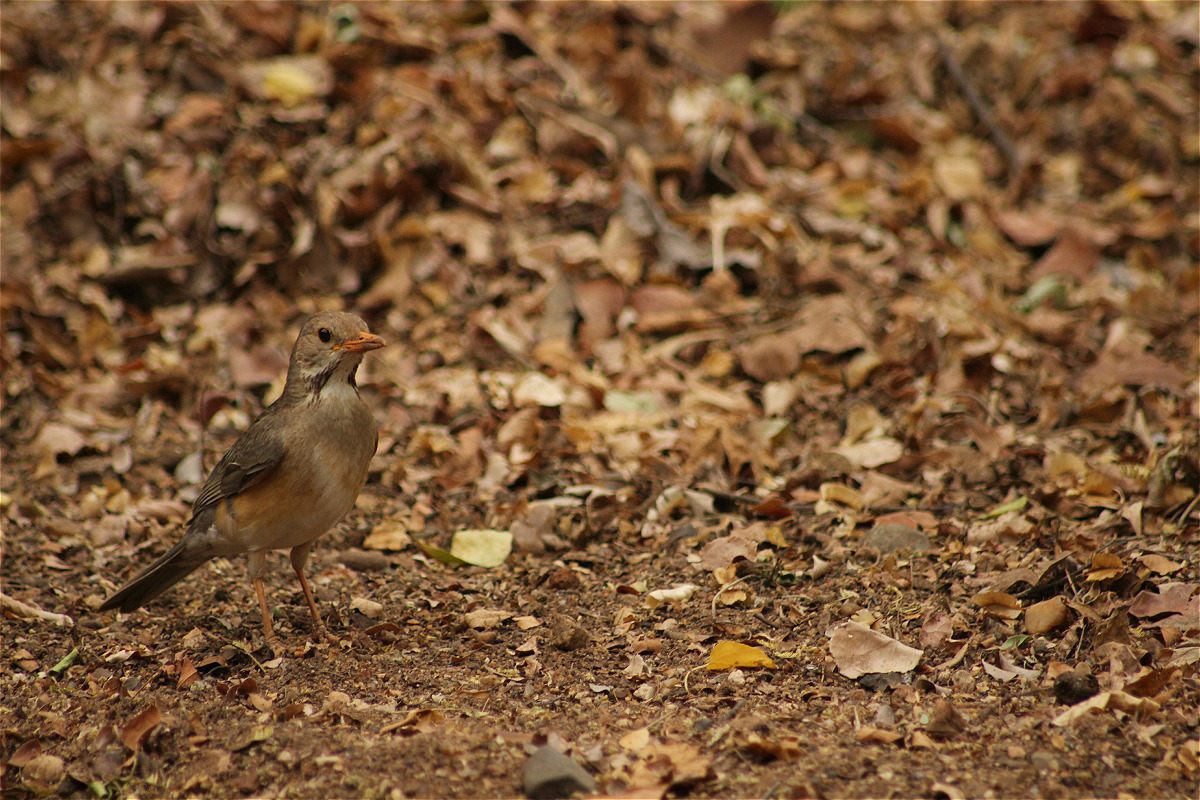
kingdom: Animalia
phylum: Chordata
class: Aves
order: Passeriformes
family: Turdidae
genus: Turdus
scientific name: Turdus libonyana
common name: Kurrichane thrush
